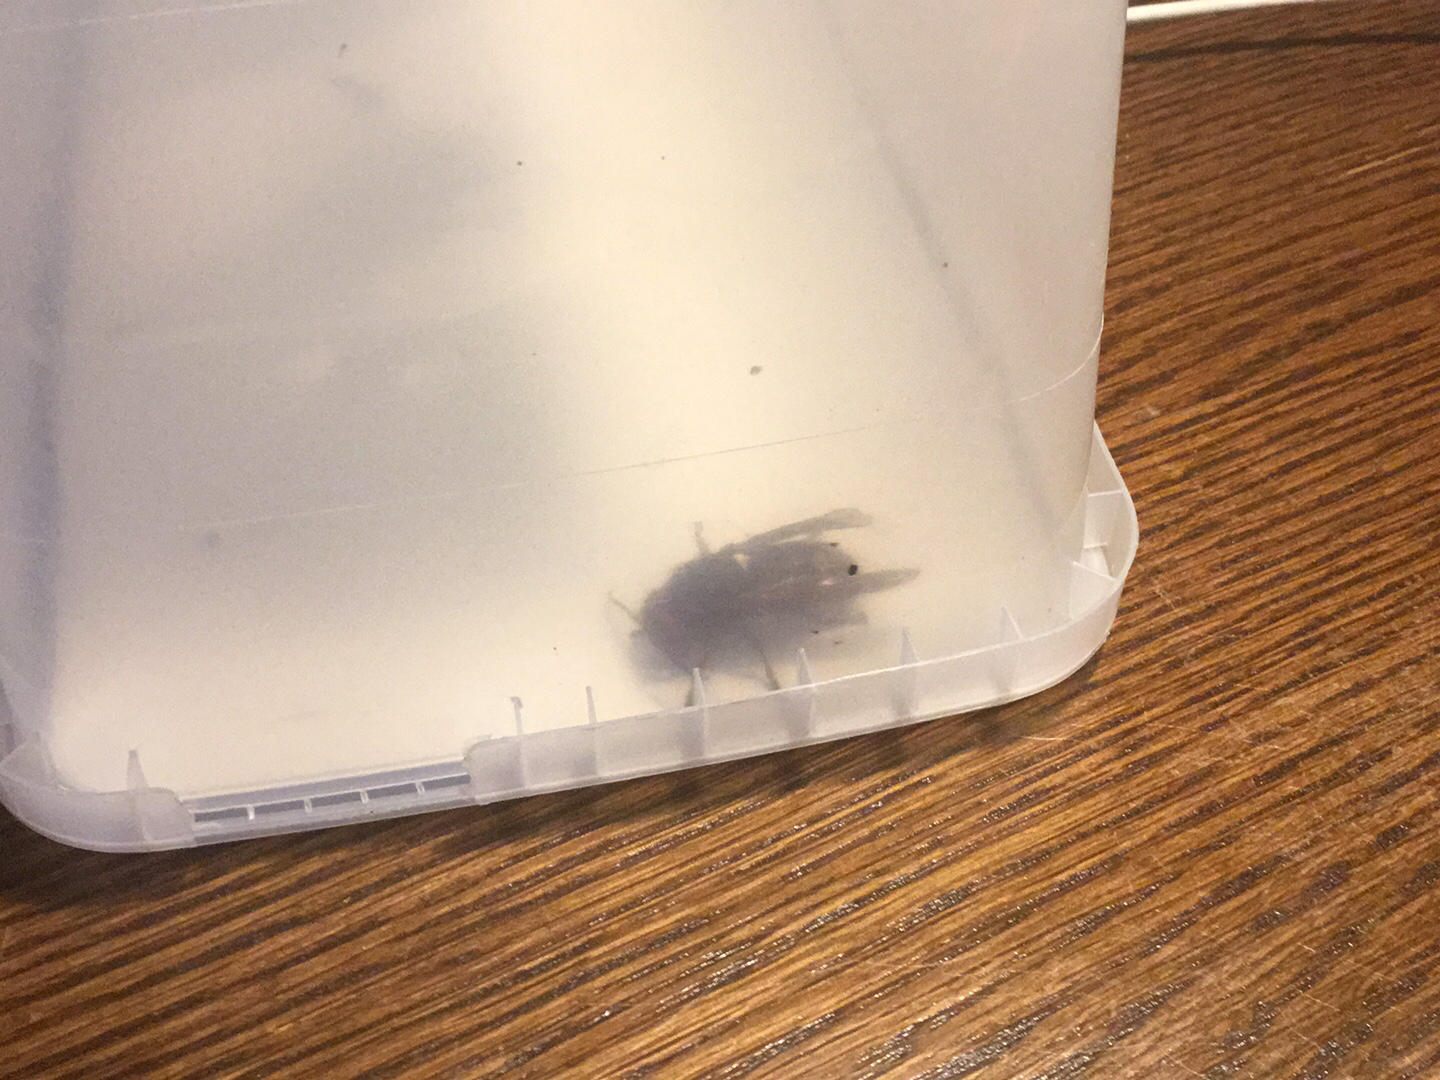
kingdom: Animalia
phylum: Arthropoda
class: Insecta
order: Hymenoptera
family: Vespidae
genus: Vespa
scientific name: Vespa crabro
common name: Hornet
